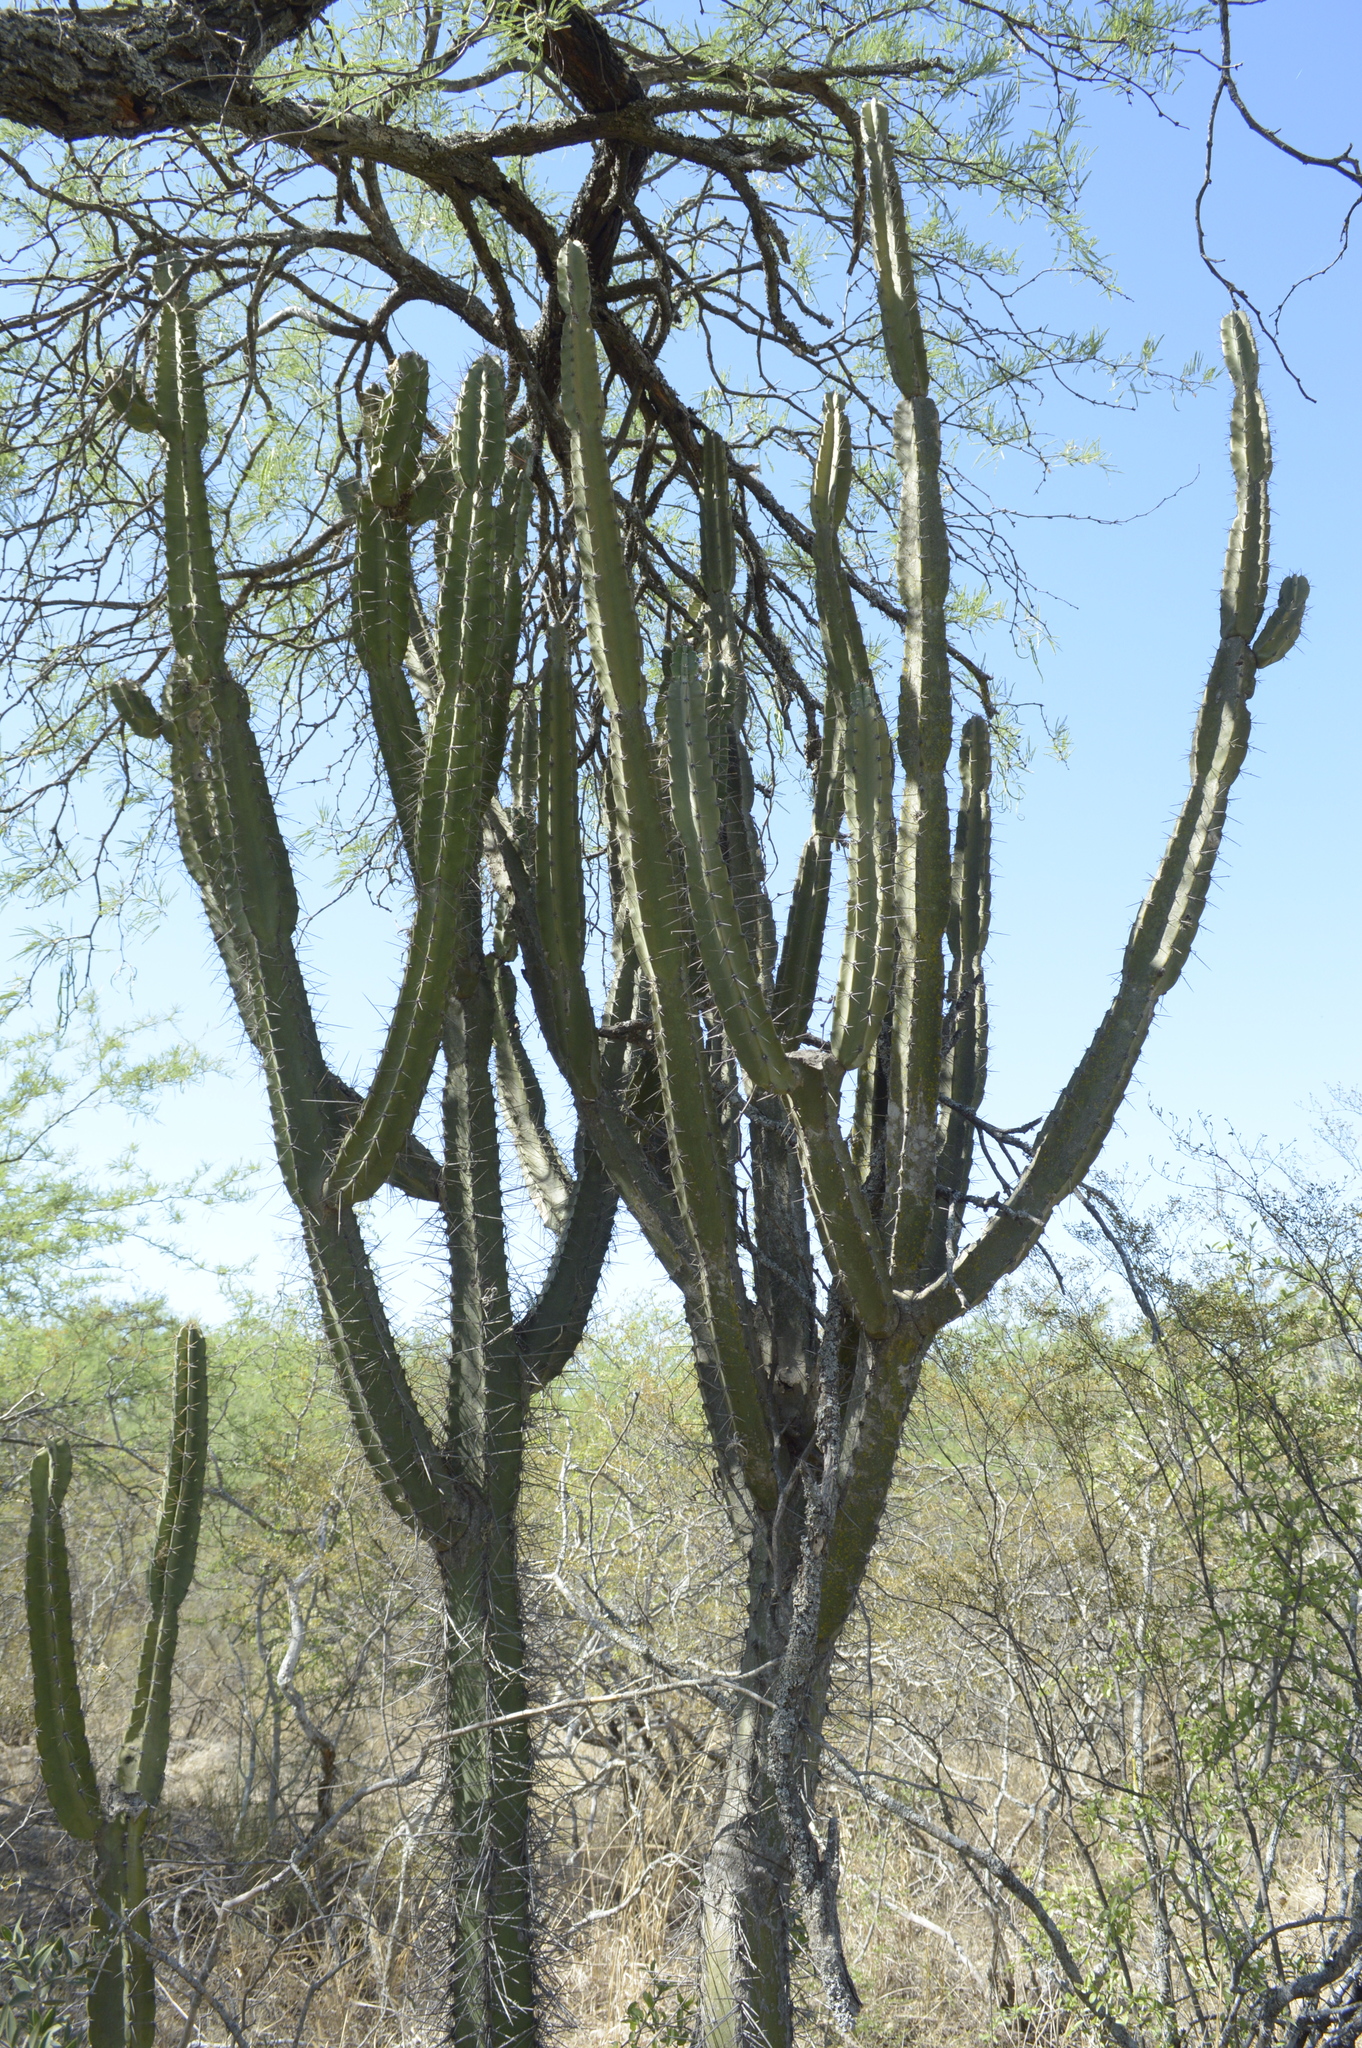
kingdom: Plantae
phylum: Tracheophyta
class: Magnoliopsida
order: Caryophyllales
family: Cactaceae
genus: Cereus
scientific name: Cereus forbesii
